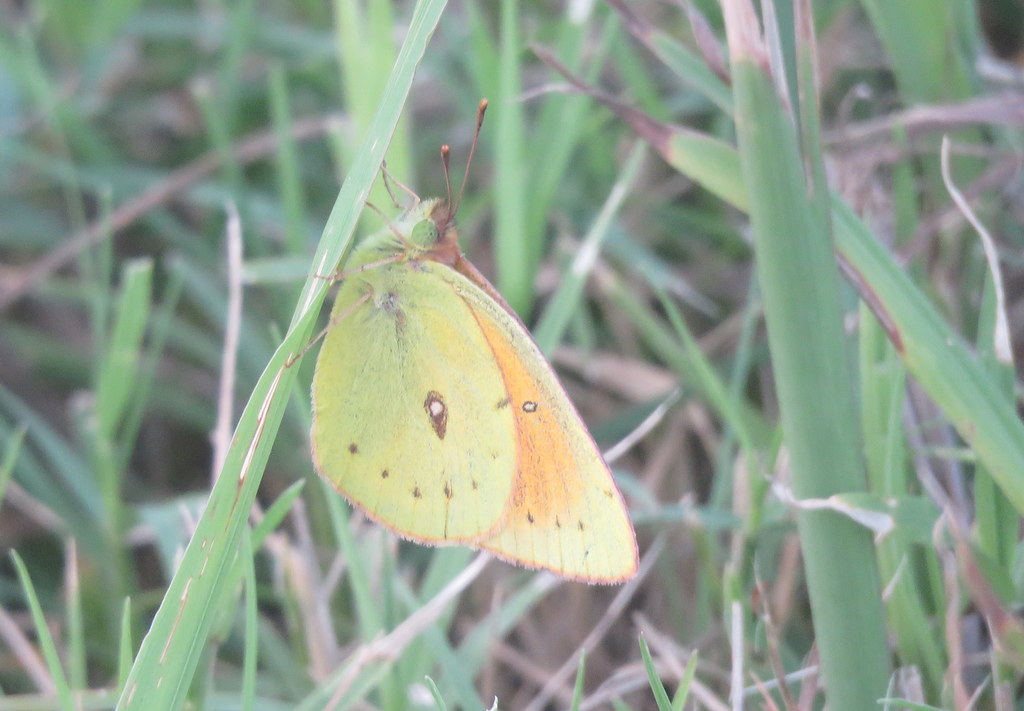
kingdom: Animalia
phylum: Arthropoda
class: Insecta
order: Lepidoptera
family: Pieridae
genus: Colias
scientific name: Colias lesbia
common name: Lesbia clouded yellow
